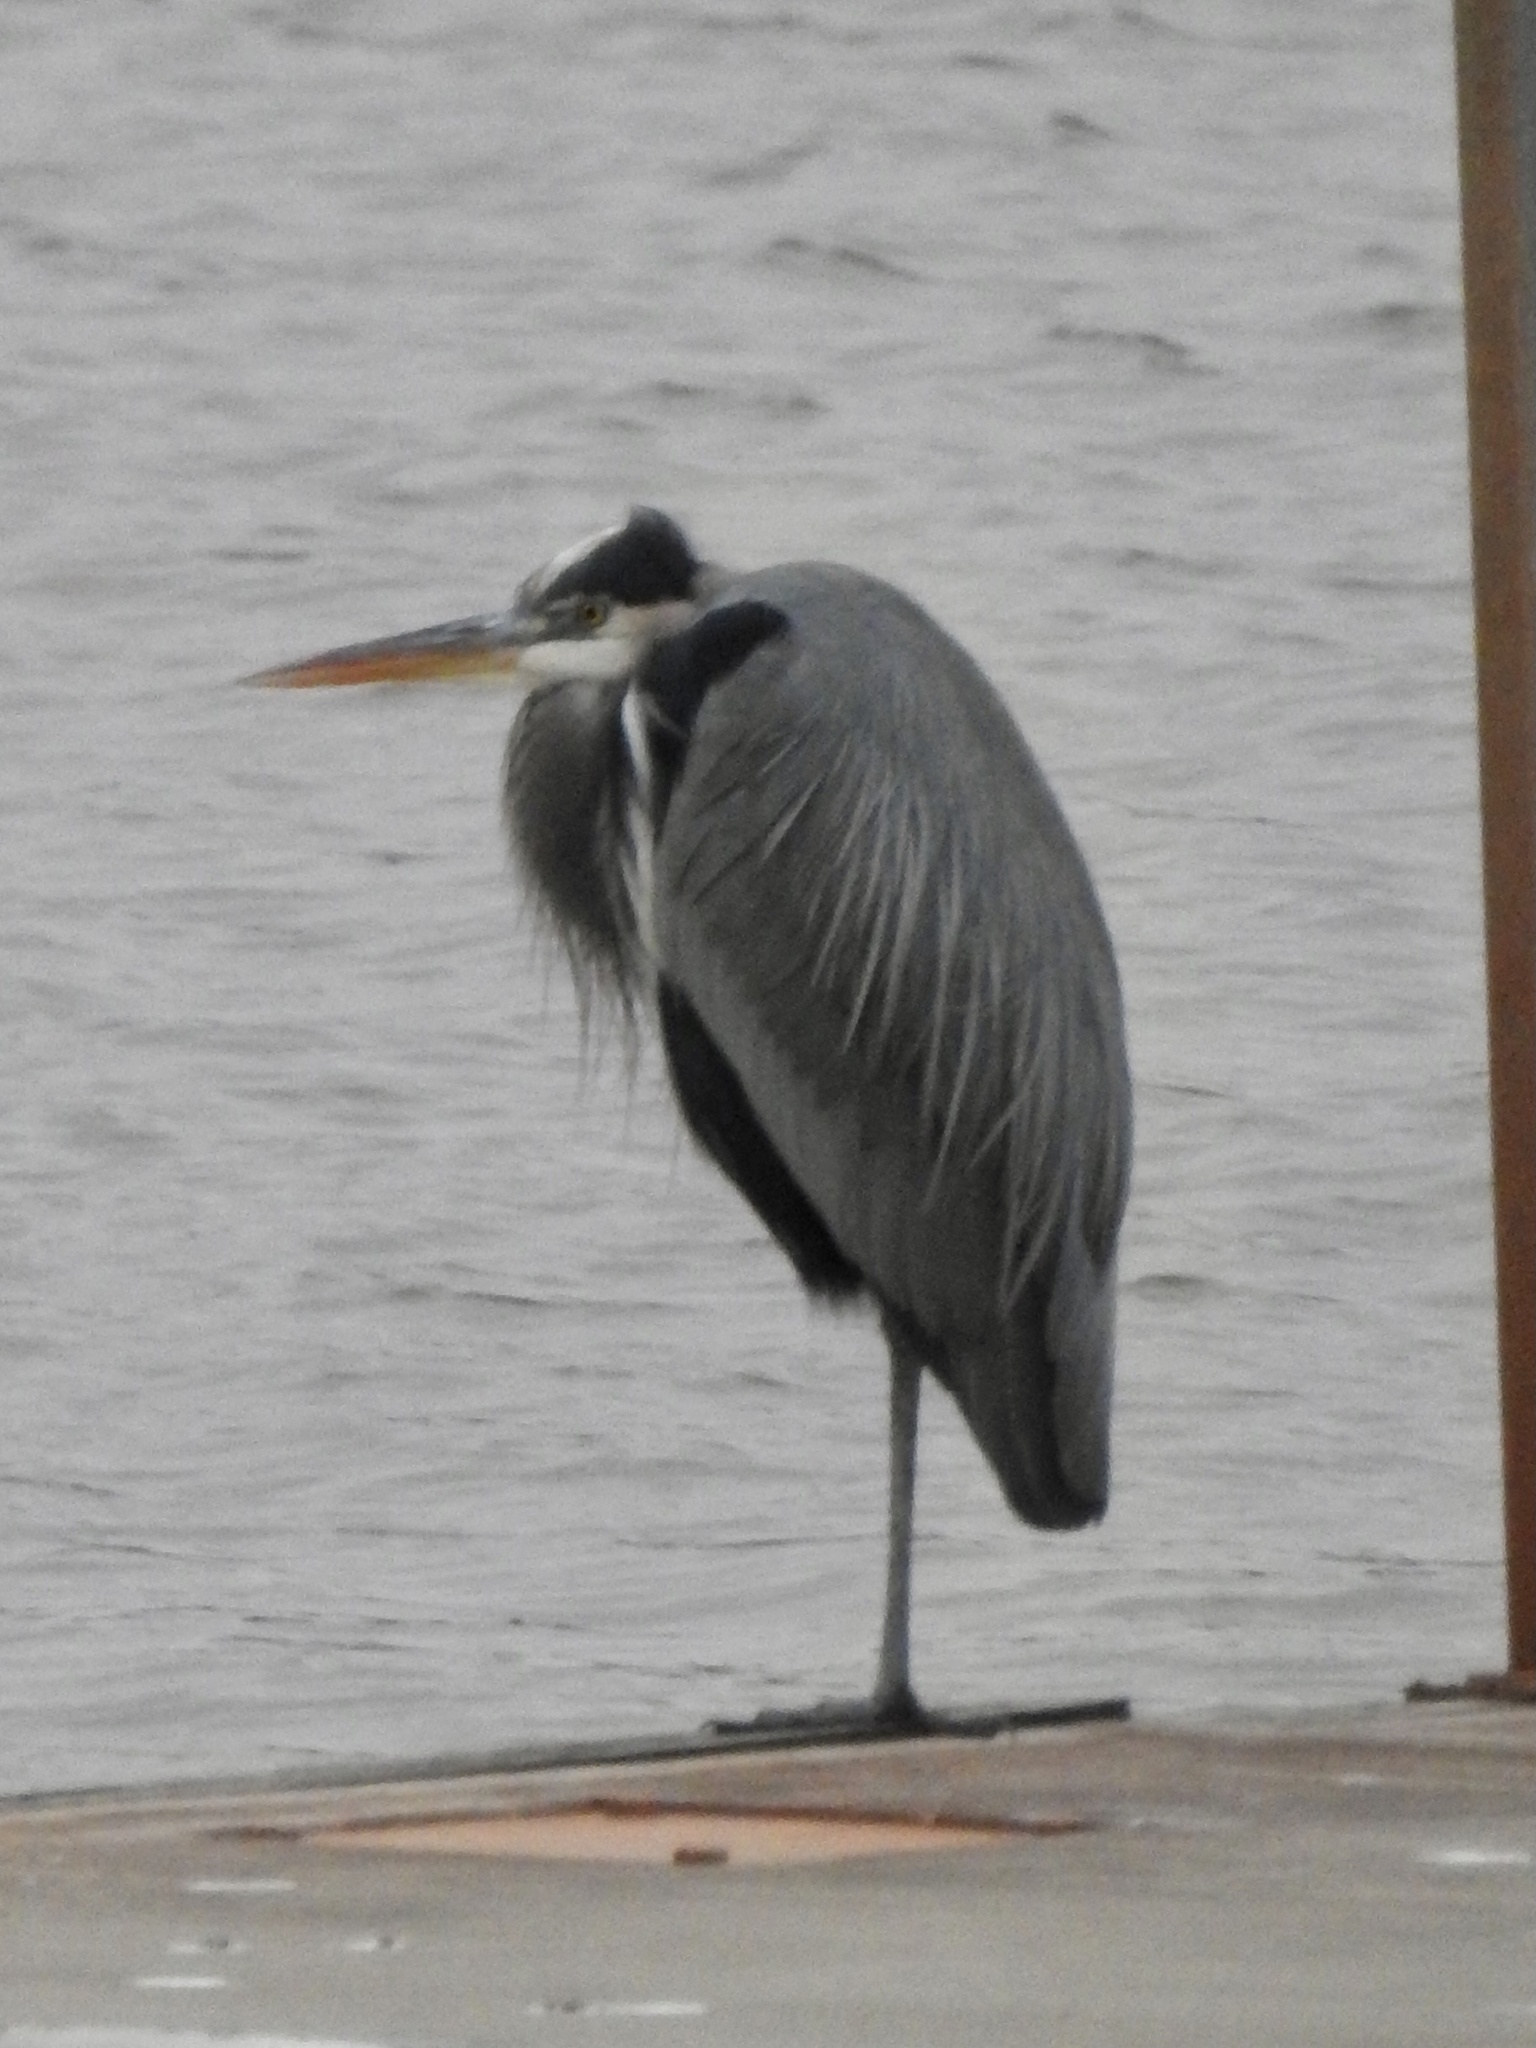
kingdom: Animalia
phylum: Chordata
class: Aves
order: Pelecaniformes
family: Ardeidae
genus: Ardea
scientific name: Ardea herodias
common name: Great blue heron
